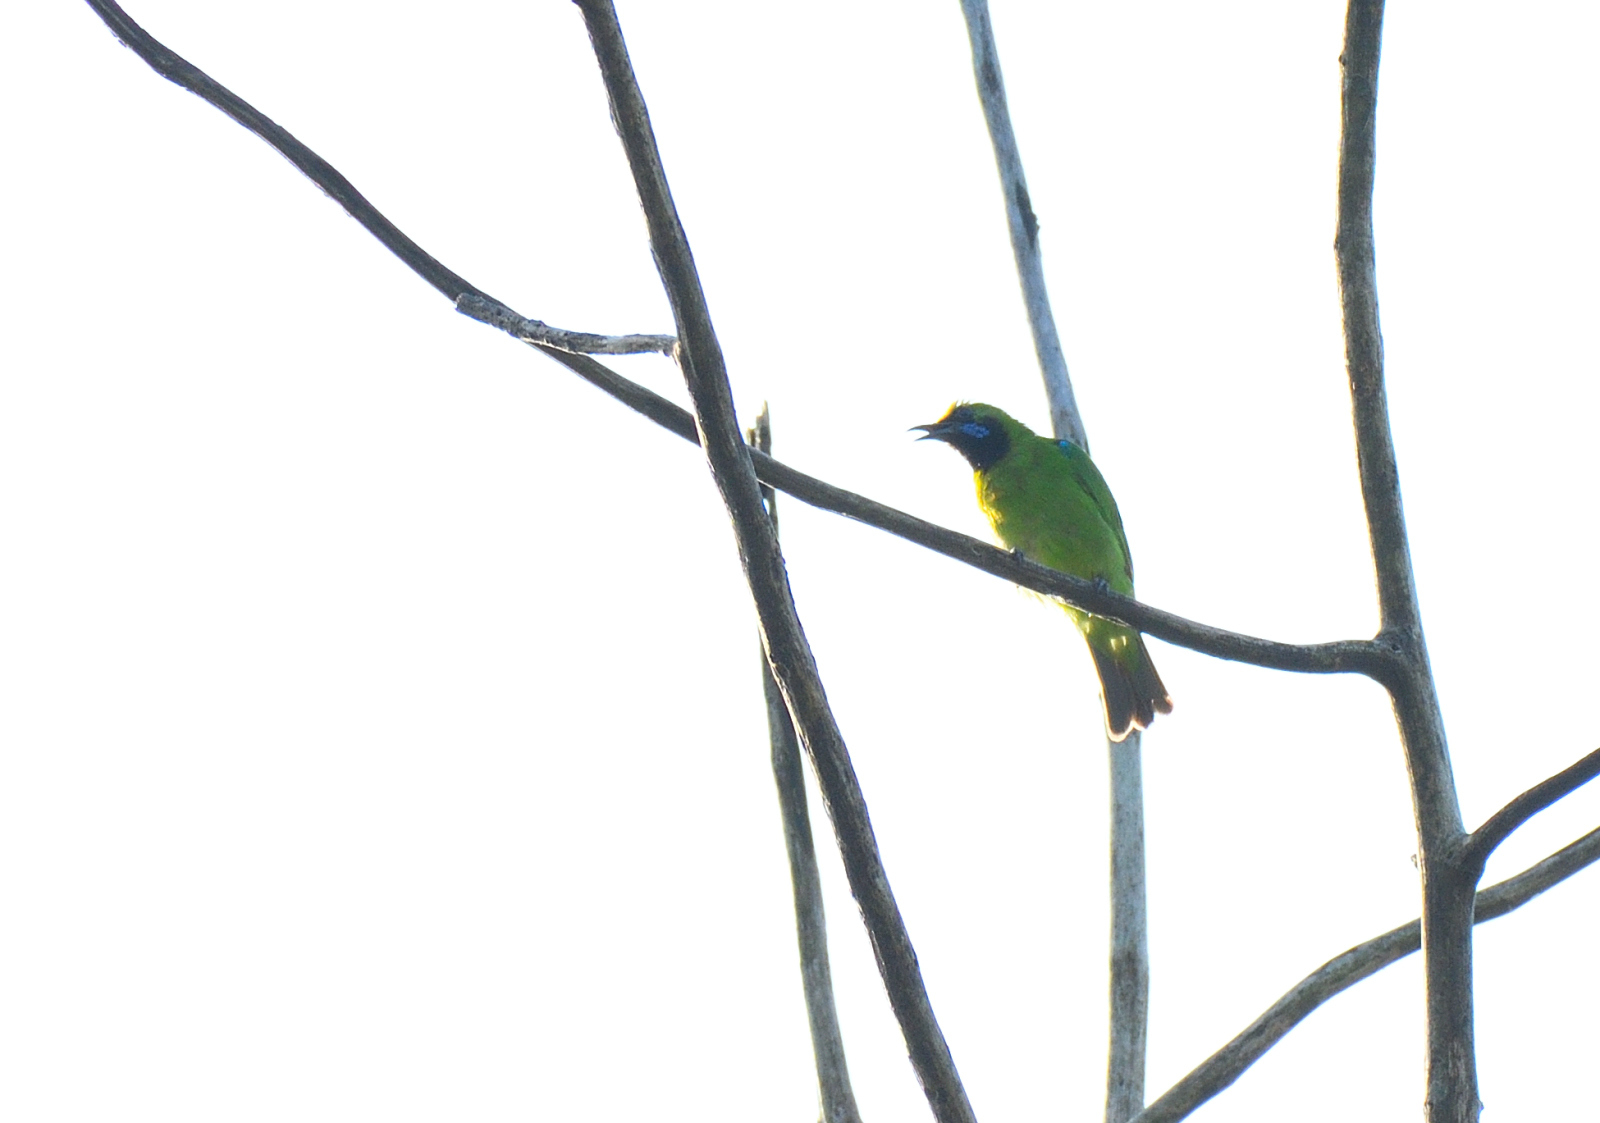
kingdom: Animalia
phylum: Chordata
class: Aves
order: Passeriformes
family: Chloropseidae
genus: Chloropsis
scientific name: Chloropsis aurifrons
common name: Golden-fronted leafbird
